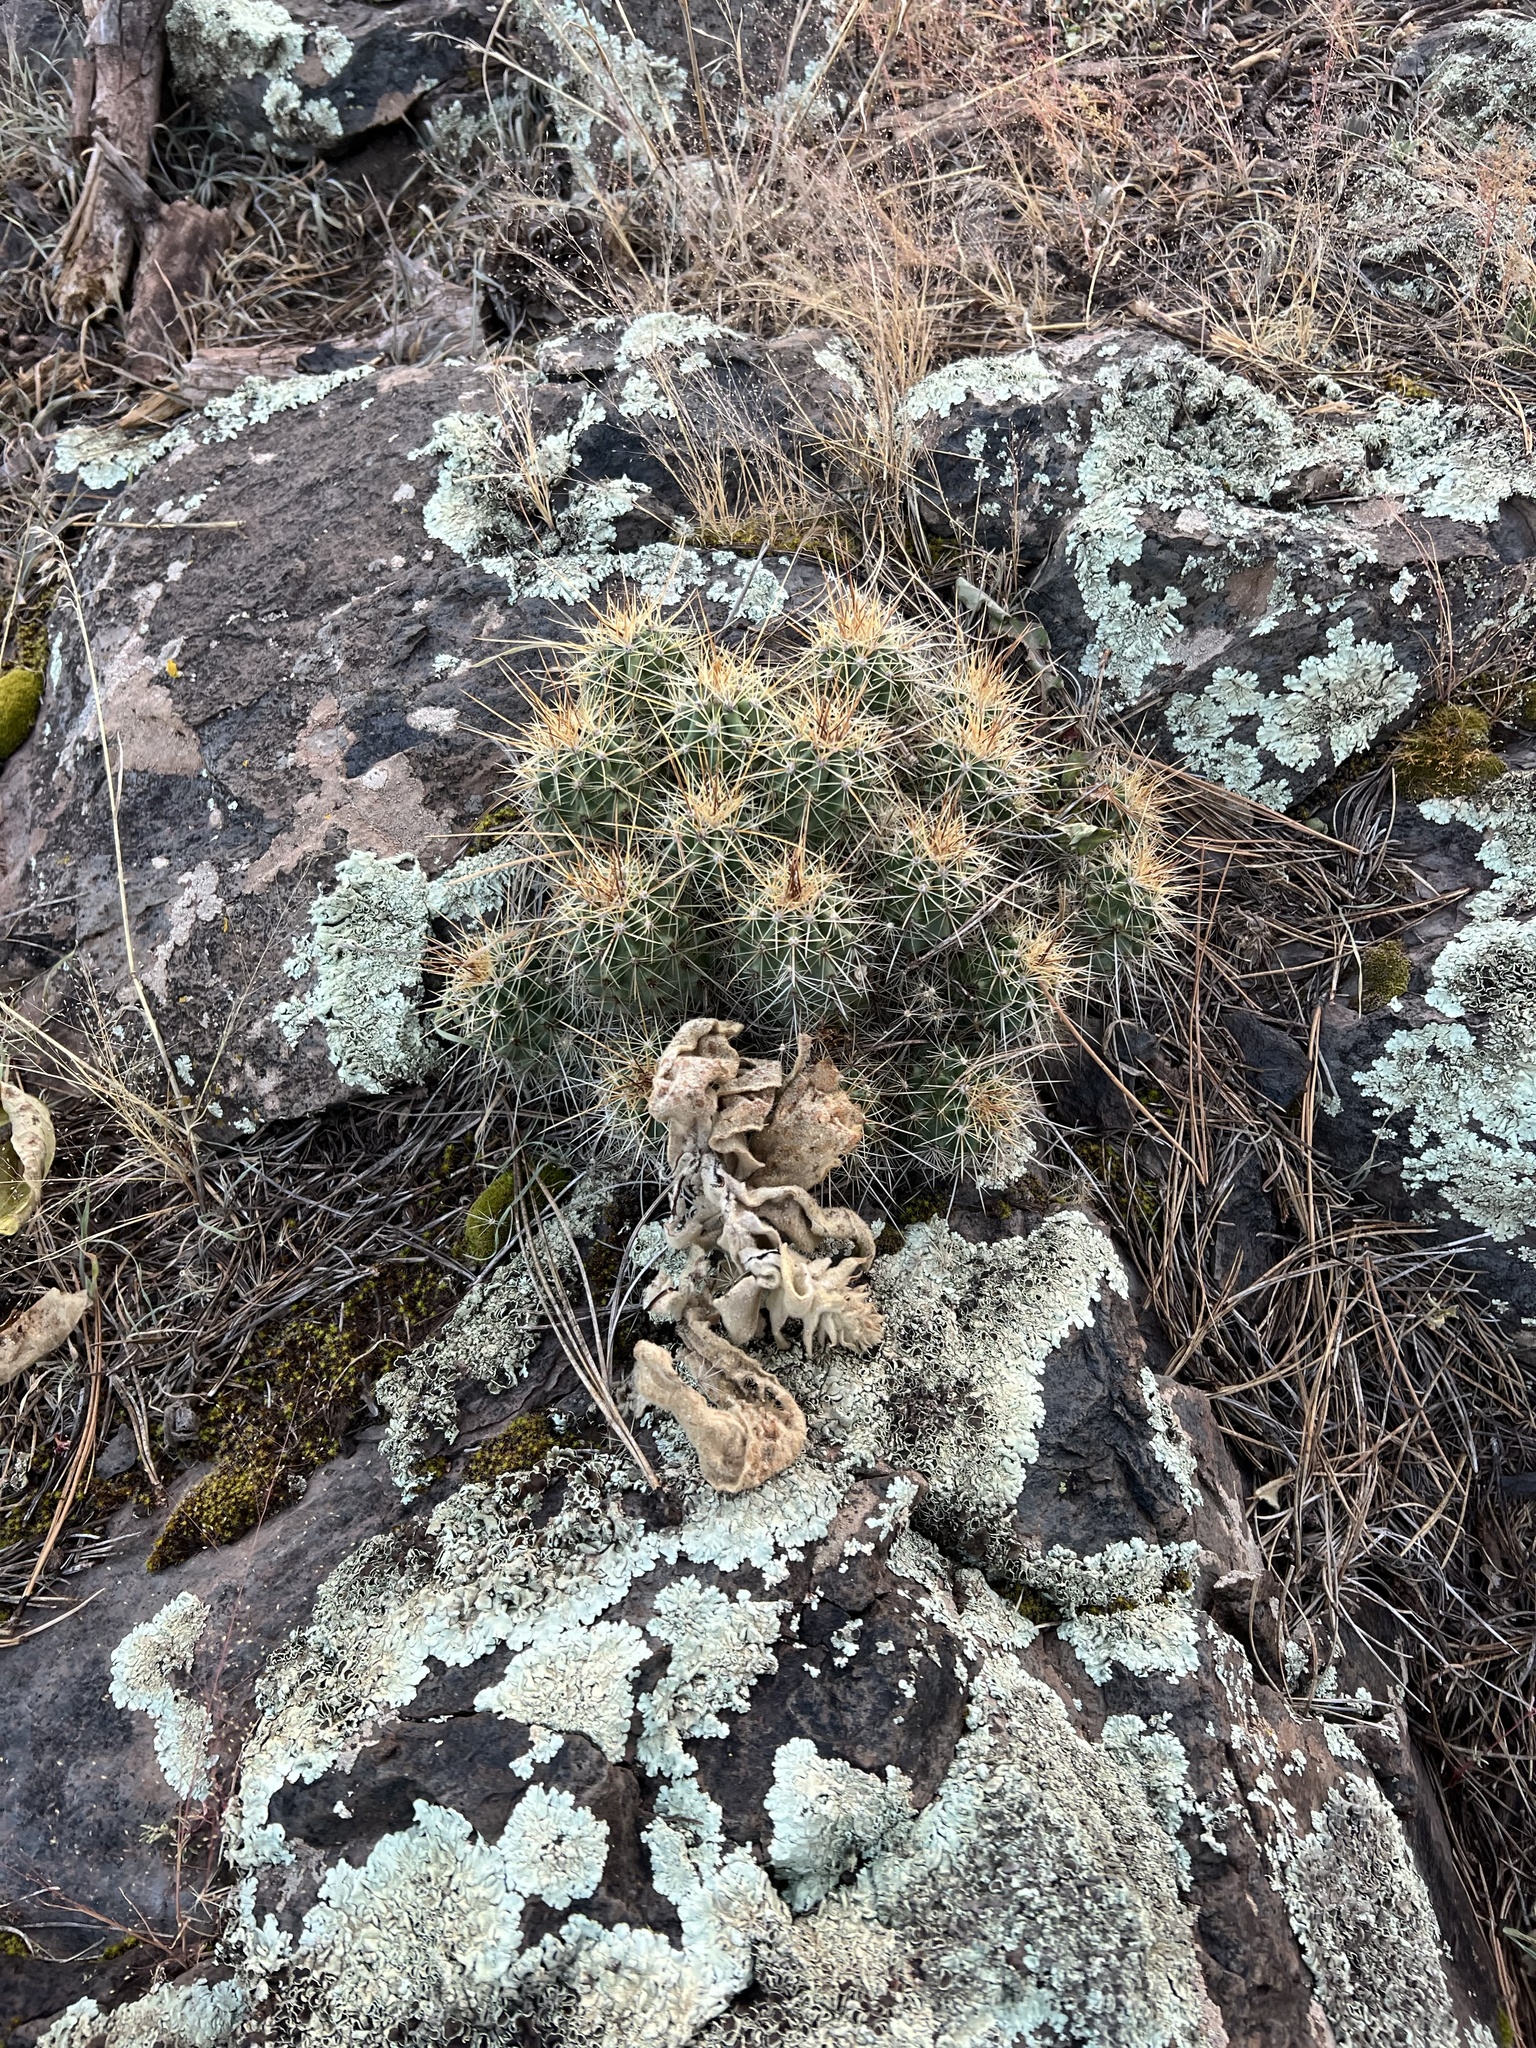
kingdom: Plantae
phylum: Tracheophyta
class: Magnoliopsida
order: Caryophyllales
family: Cactaceae
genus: Echinocereus
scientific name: Echinocereus bakeri
